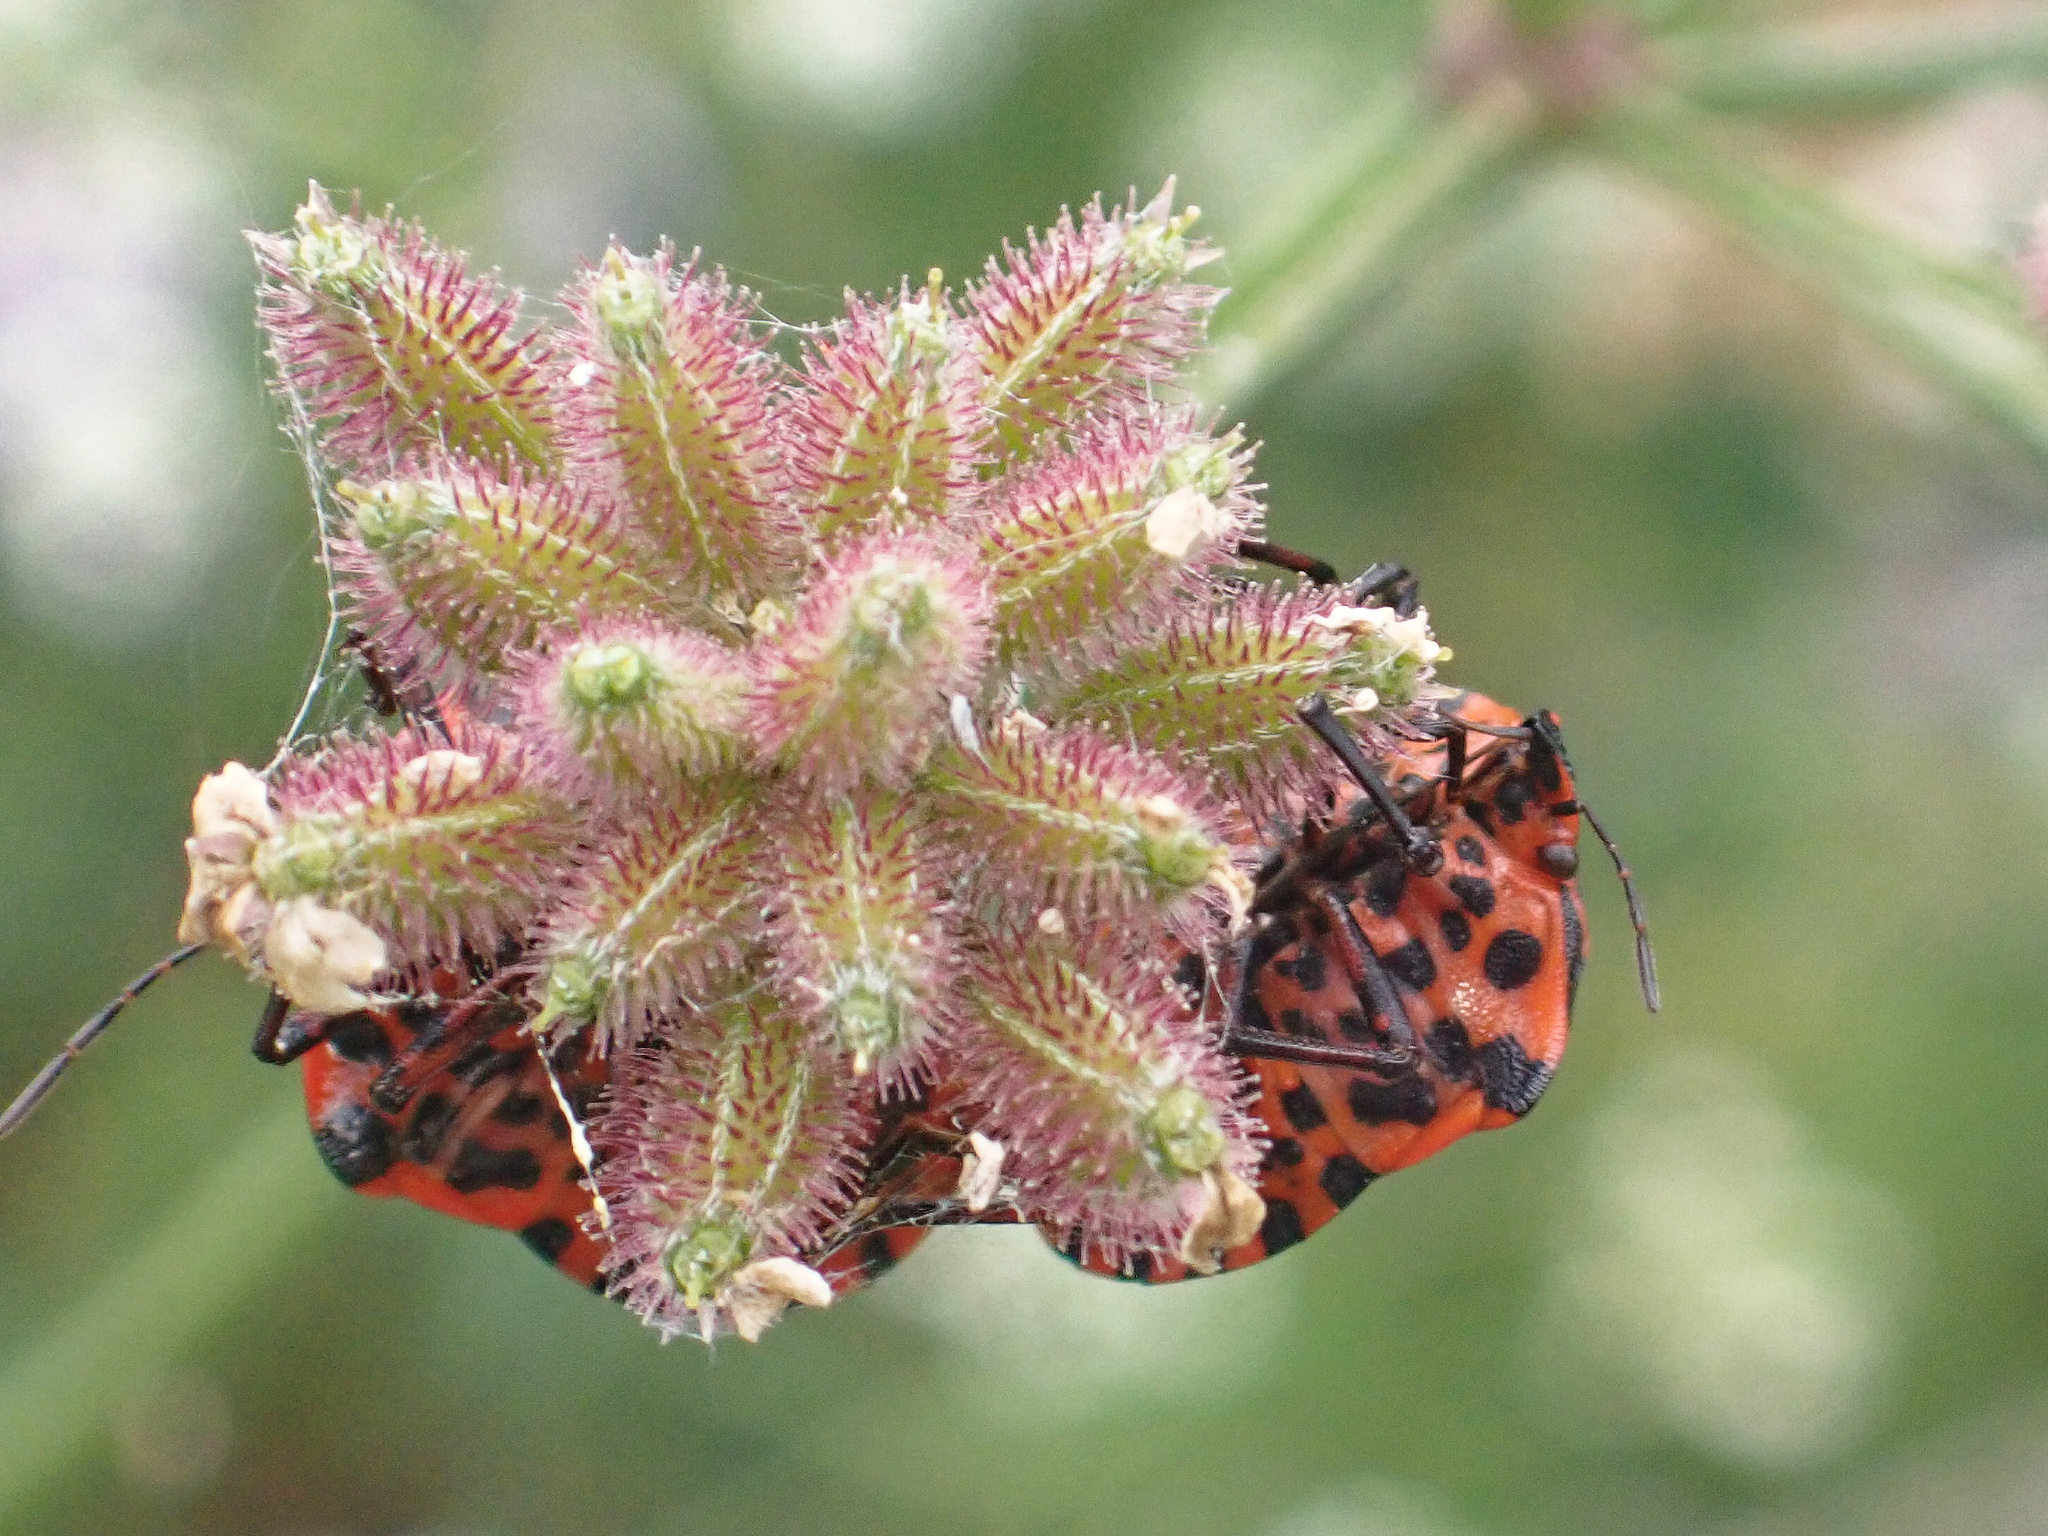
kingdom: Animalia
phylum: Arthropoda
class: Insecta
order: Hemiptera
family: Pentatomidae
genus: Graphosoma
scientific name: Graphosoma italicum
